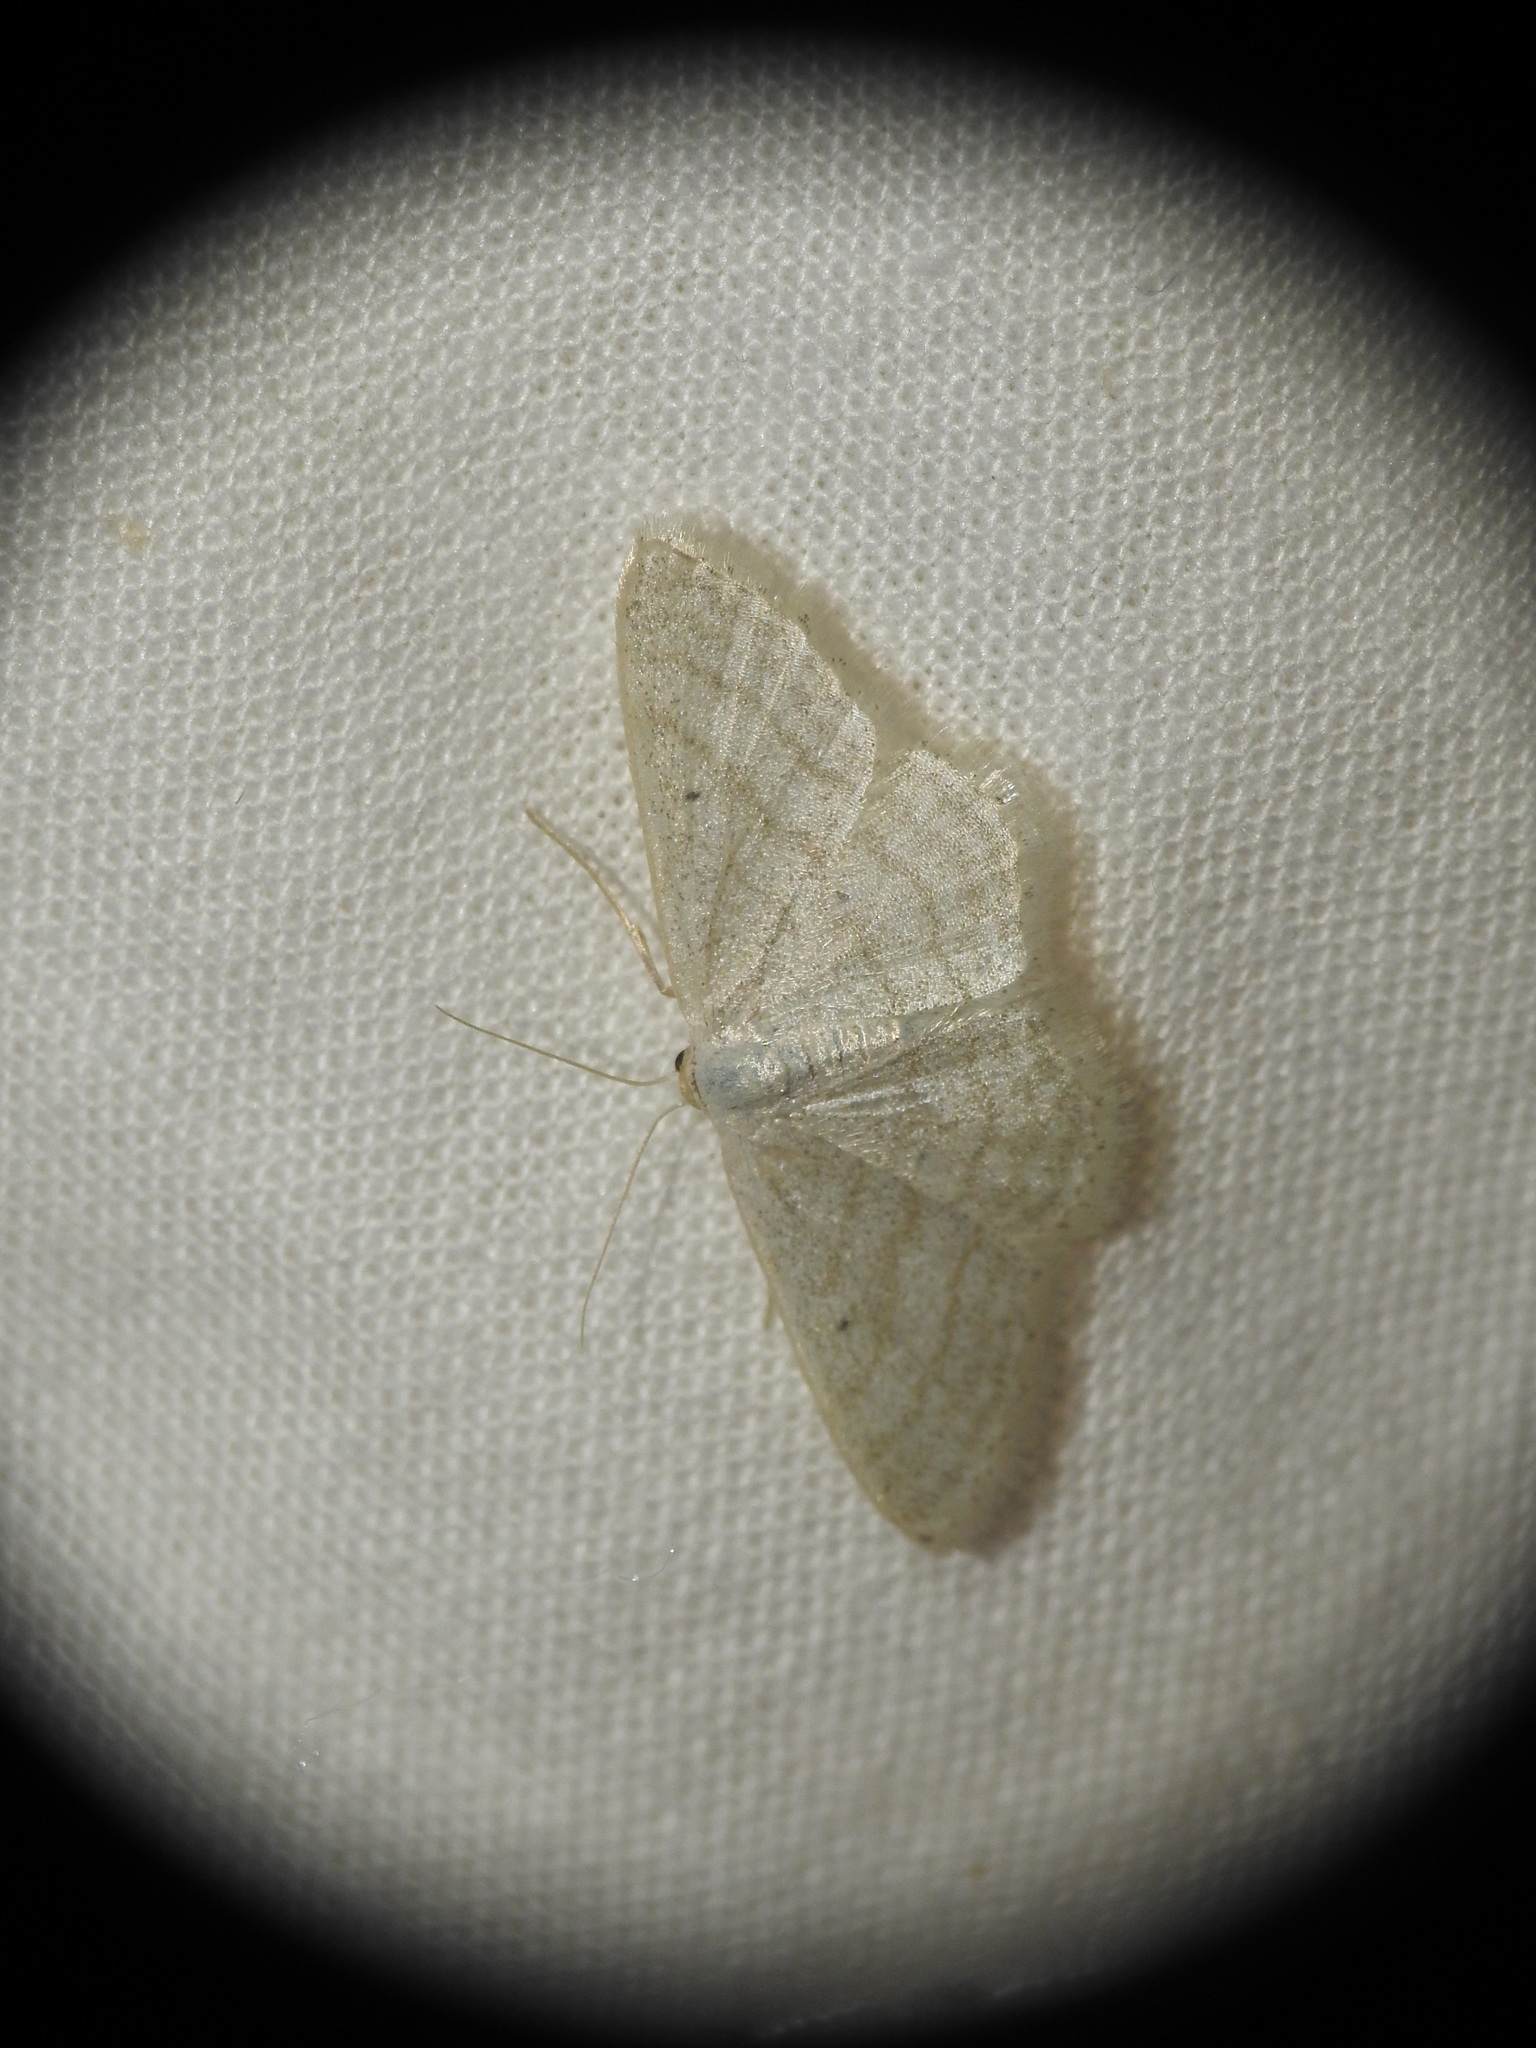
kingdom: Animalia
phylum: Arthropoda
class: Insecta
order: Lepidoptera
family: Geometridae
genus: Idaea
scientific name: Idaea subsericeata
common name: Satin wave
